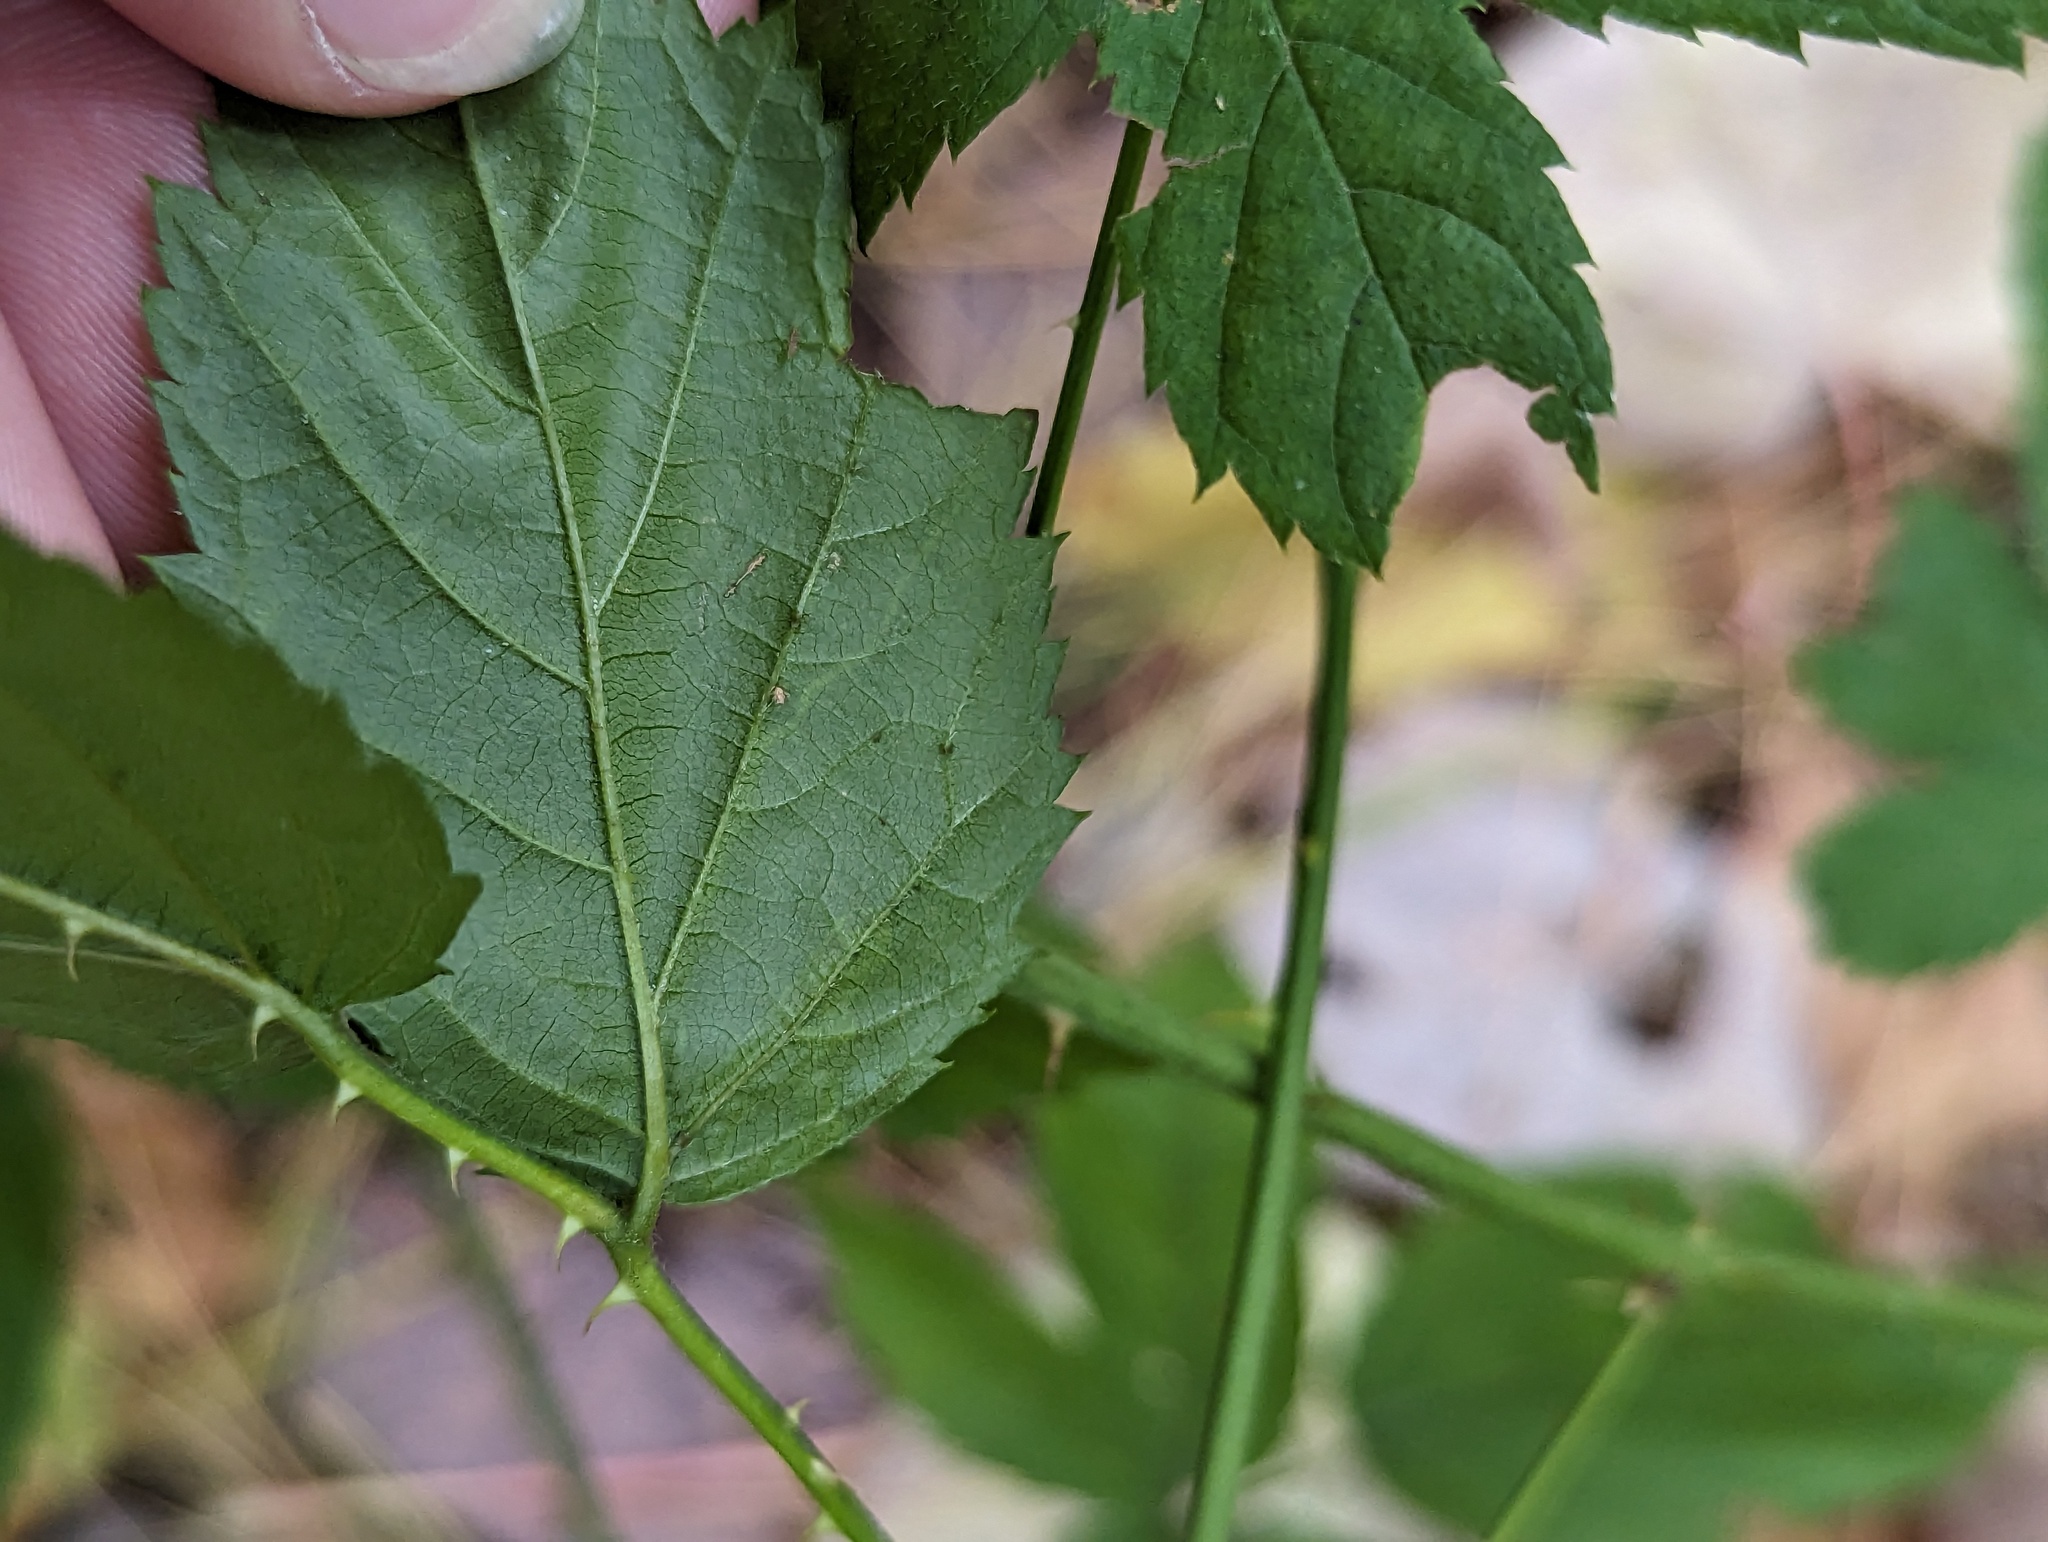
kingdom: Animalia
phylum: Arthropoda
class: Insecta
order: Diptera
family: Agromyzidae
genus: Agromyza
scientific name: Agromyza vockerothi
